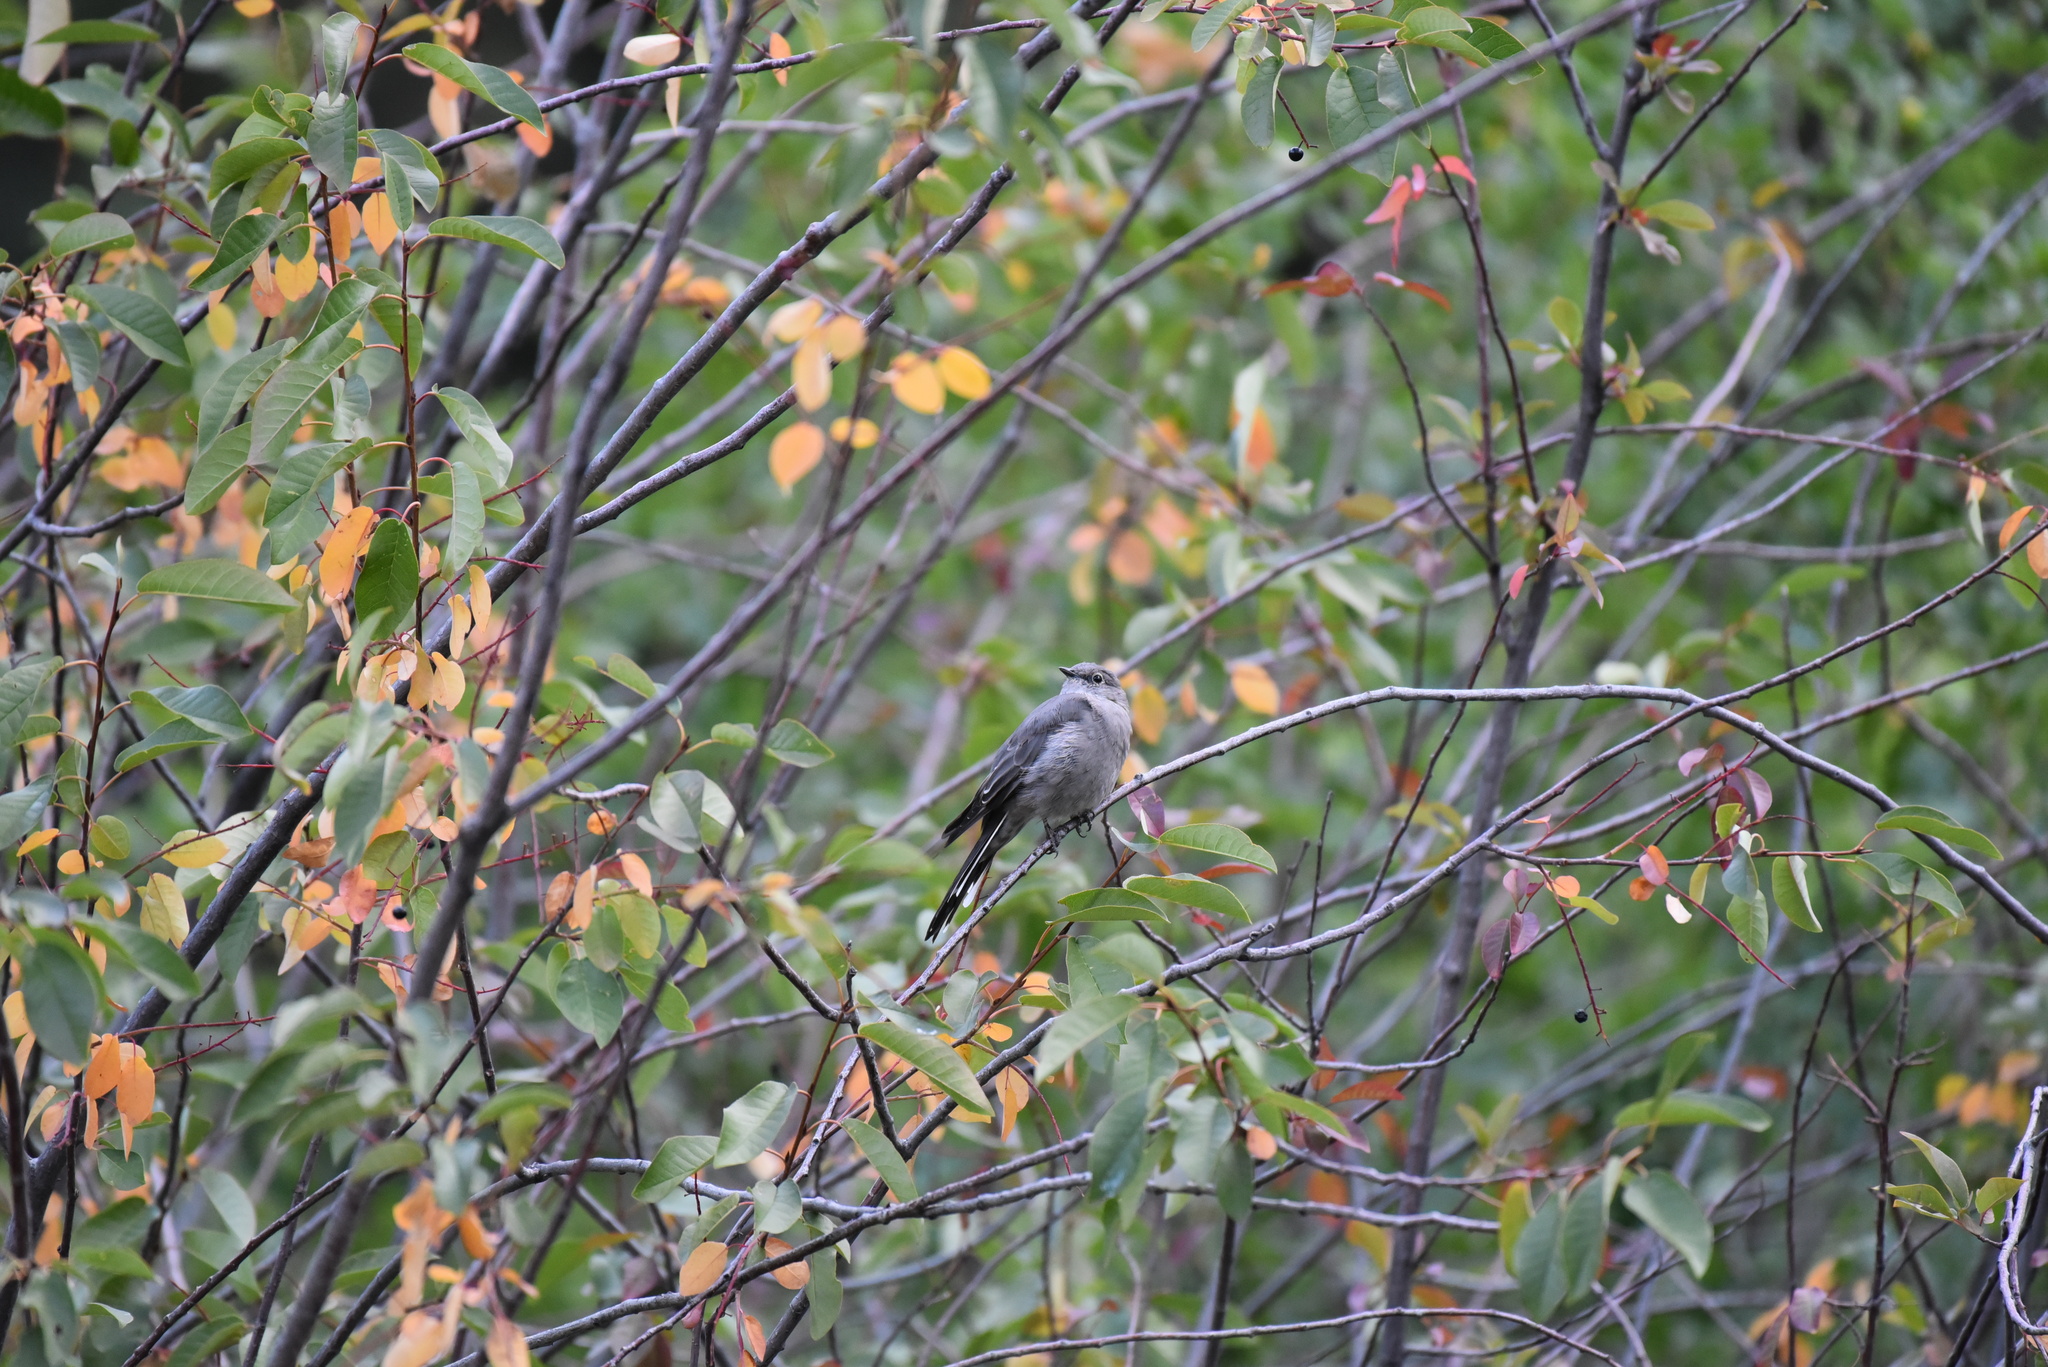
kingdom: Animalia
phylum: Chordata
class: Aves
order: Passeriformes
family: Turdidae
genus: Myadestes
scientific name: Myadestes townsendi
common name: Townsend's solitaire
